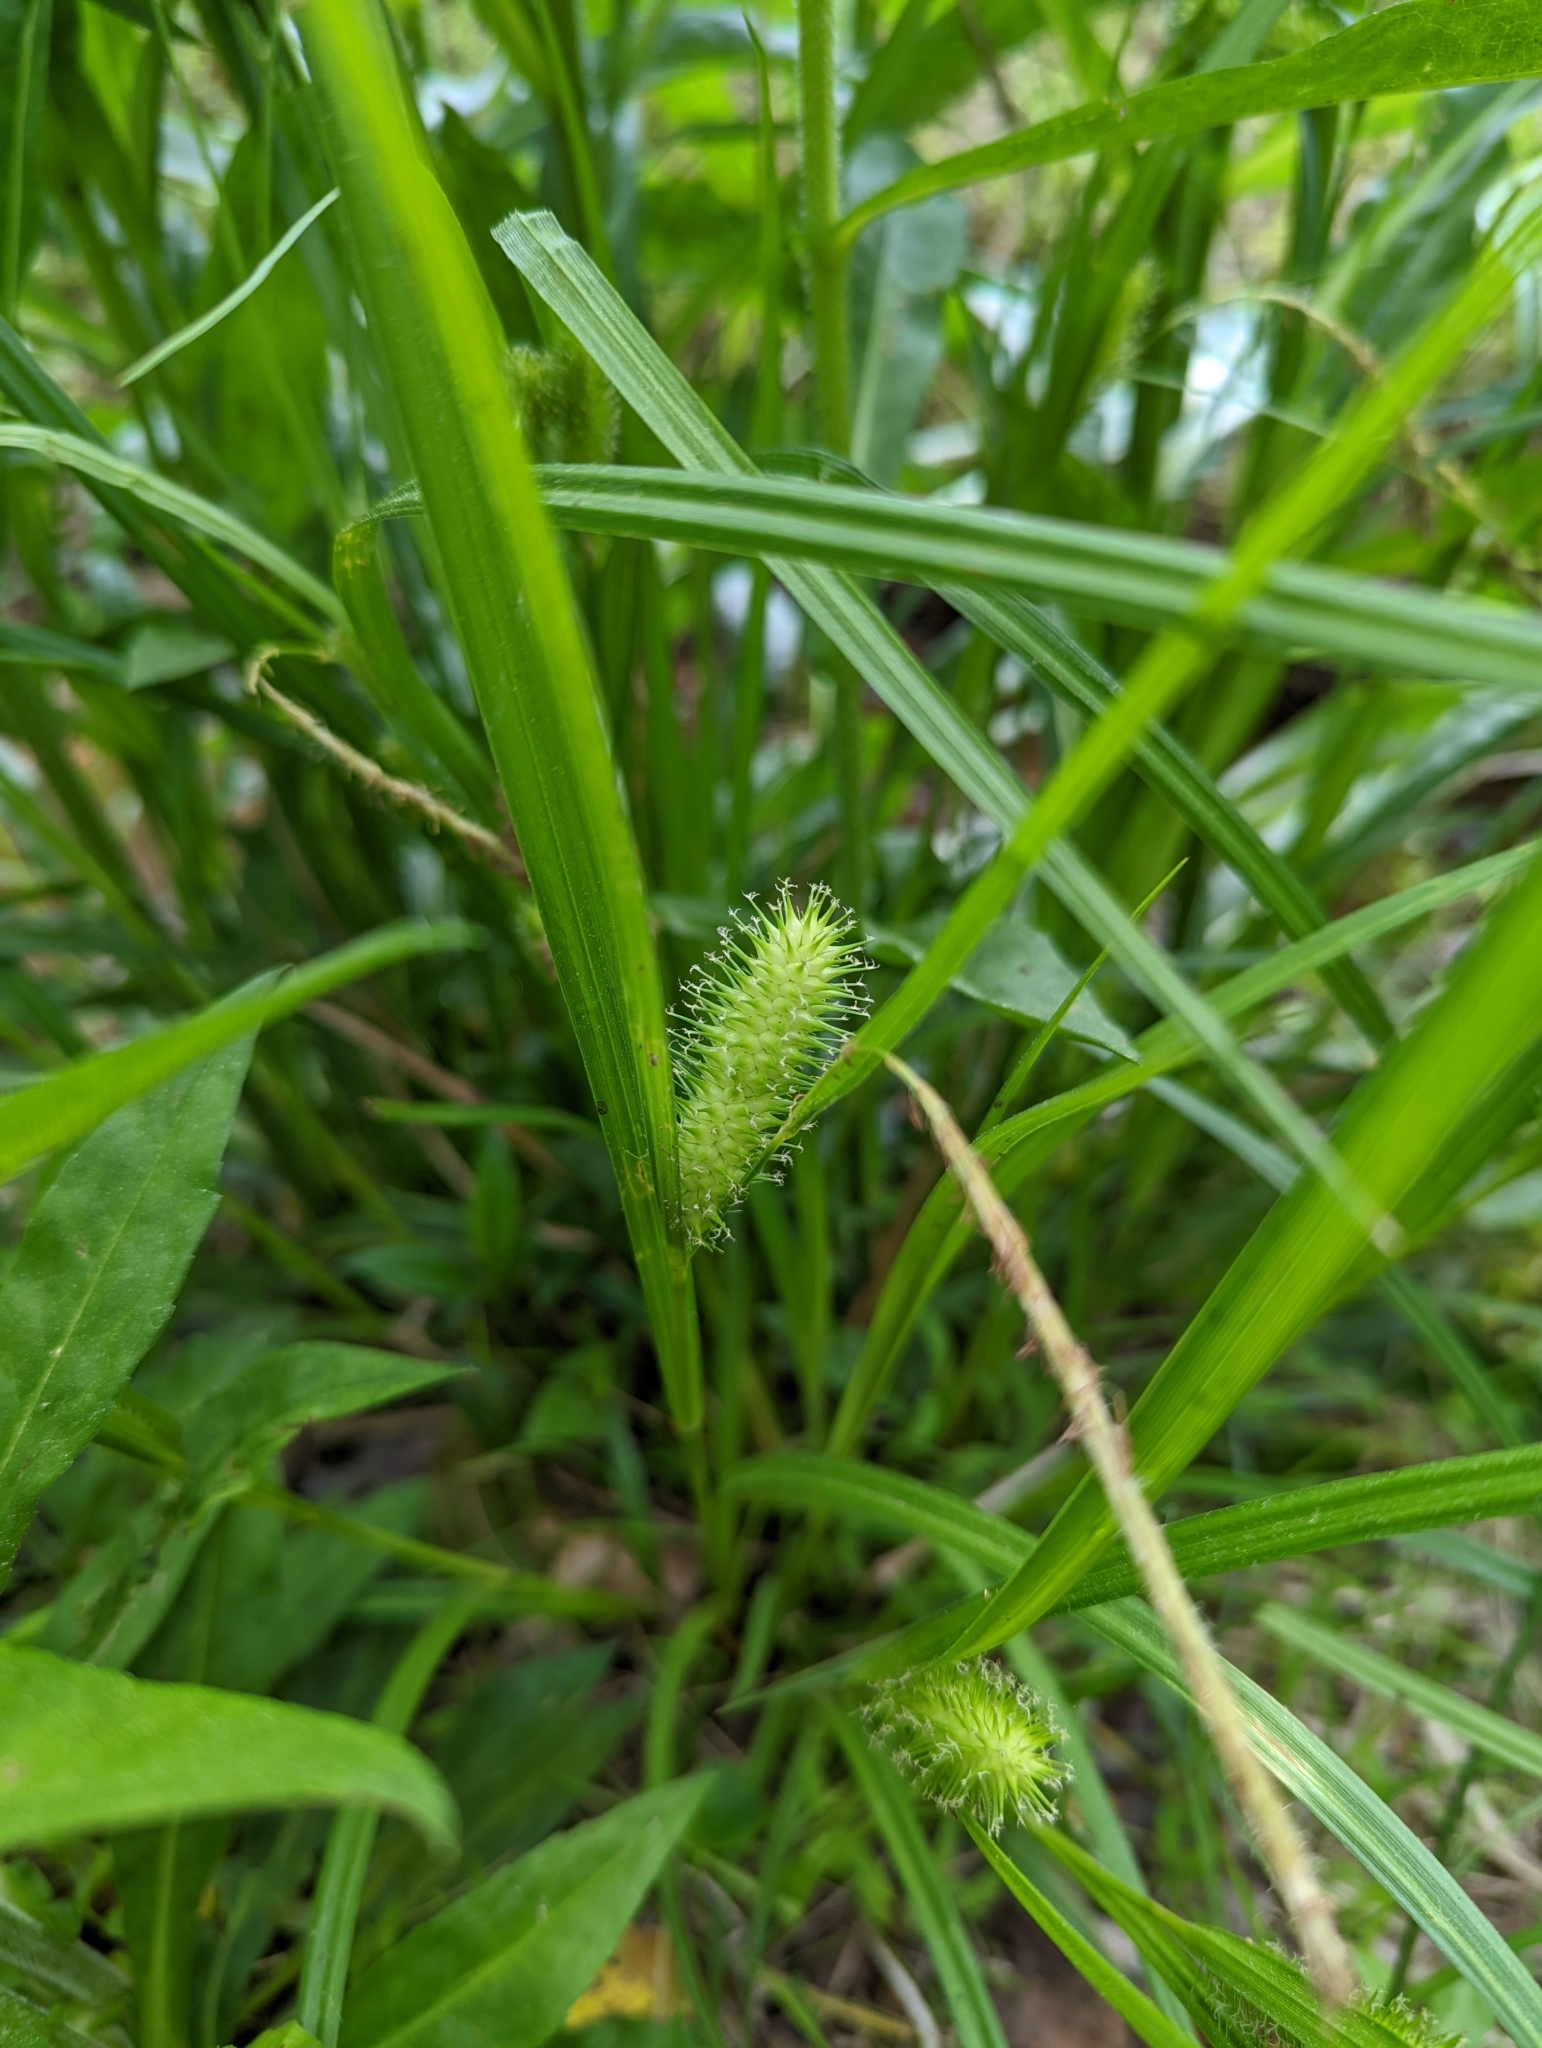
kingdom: Plantae
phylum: Tracheophyta
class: Liliopsida
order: Poales
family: Cyperaceae
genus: Carex
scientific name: Carex lurida
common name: Sallow sedge
